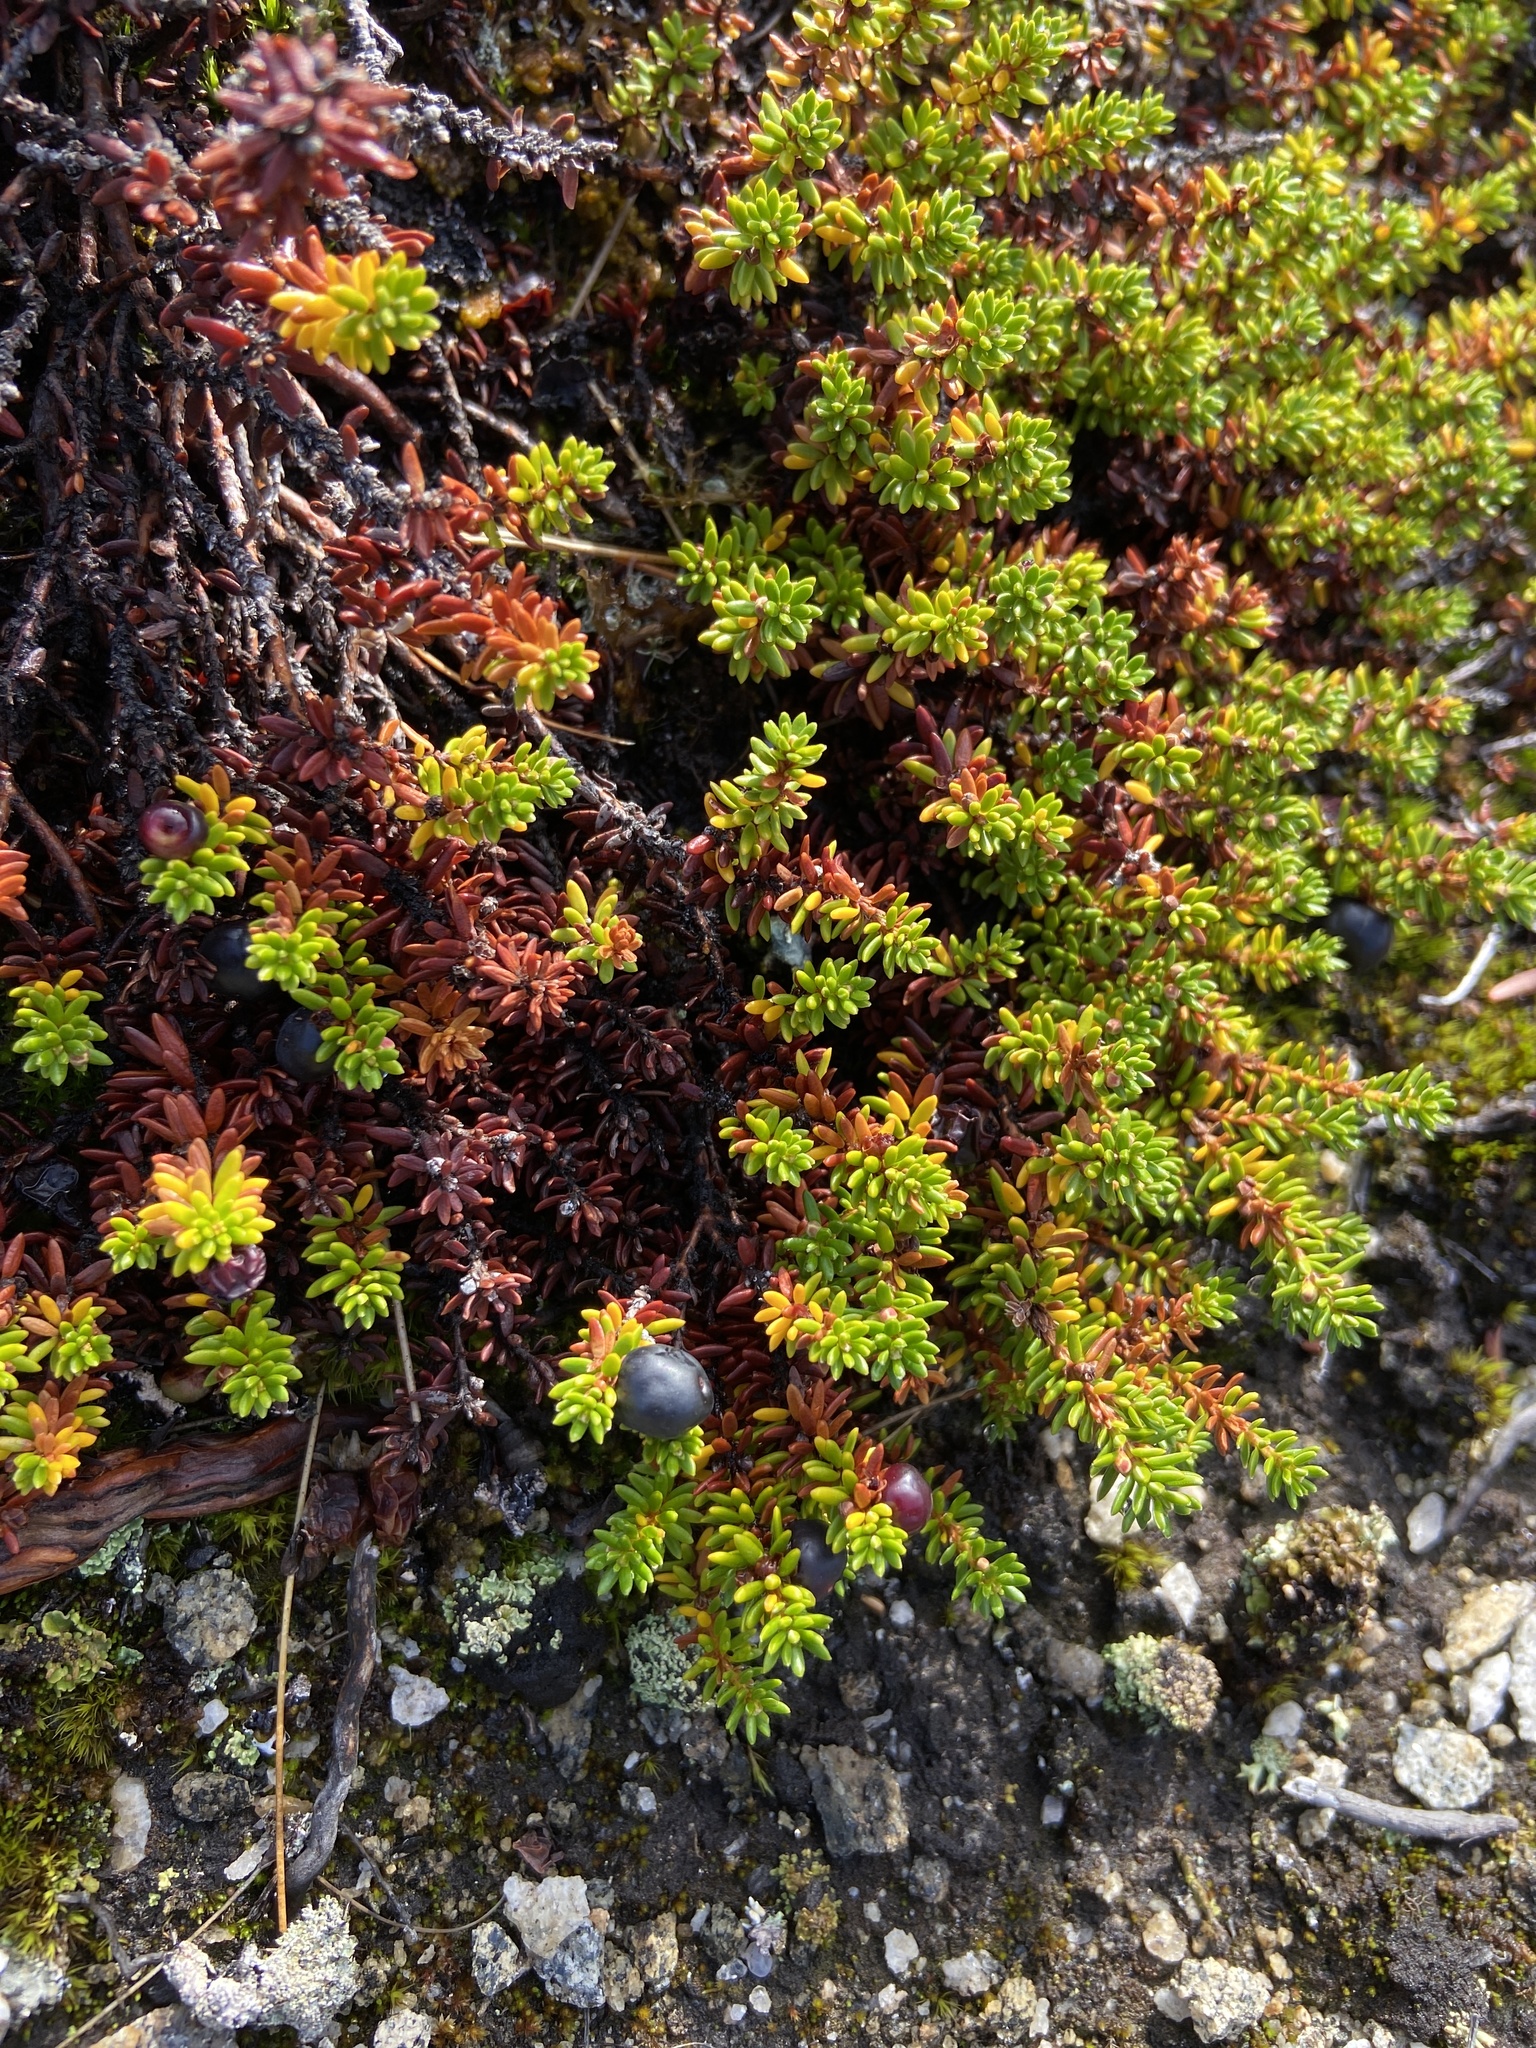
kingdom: Plantae
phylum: Tracheophyta
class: Magnoliopsida
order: Ericales
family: Ericaceae
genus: Empetrum
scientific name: Empetrum hermaphroditum
